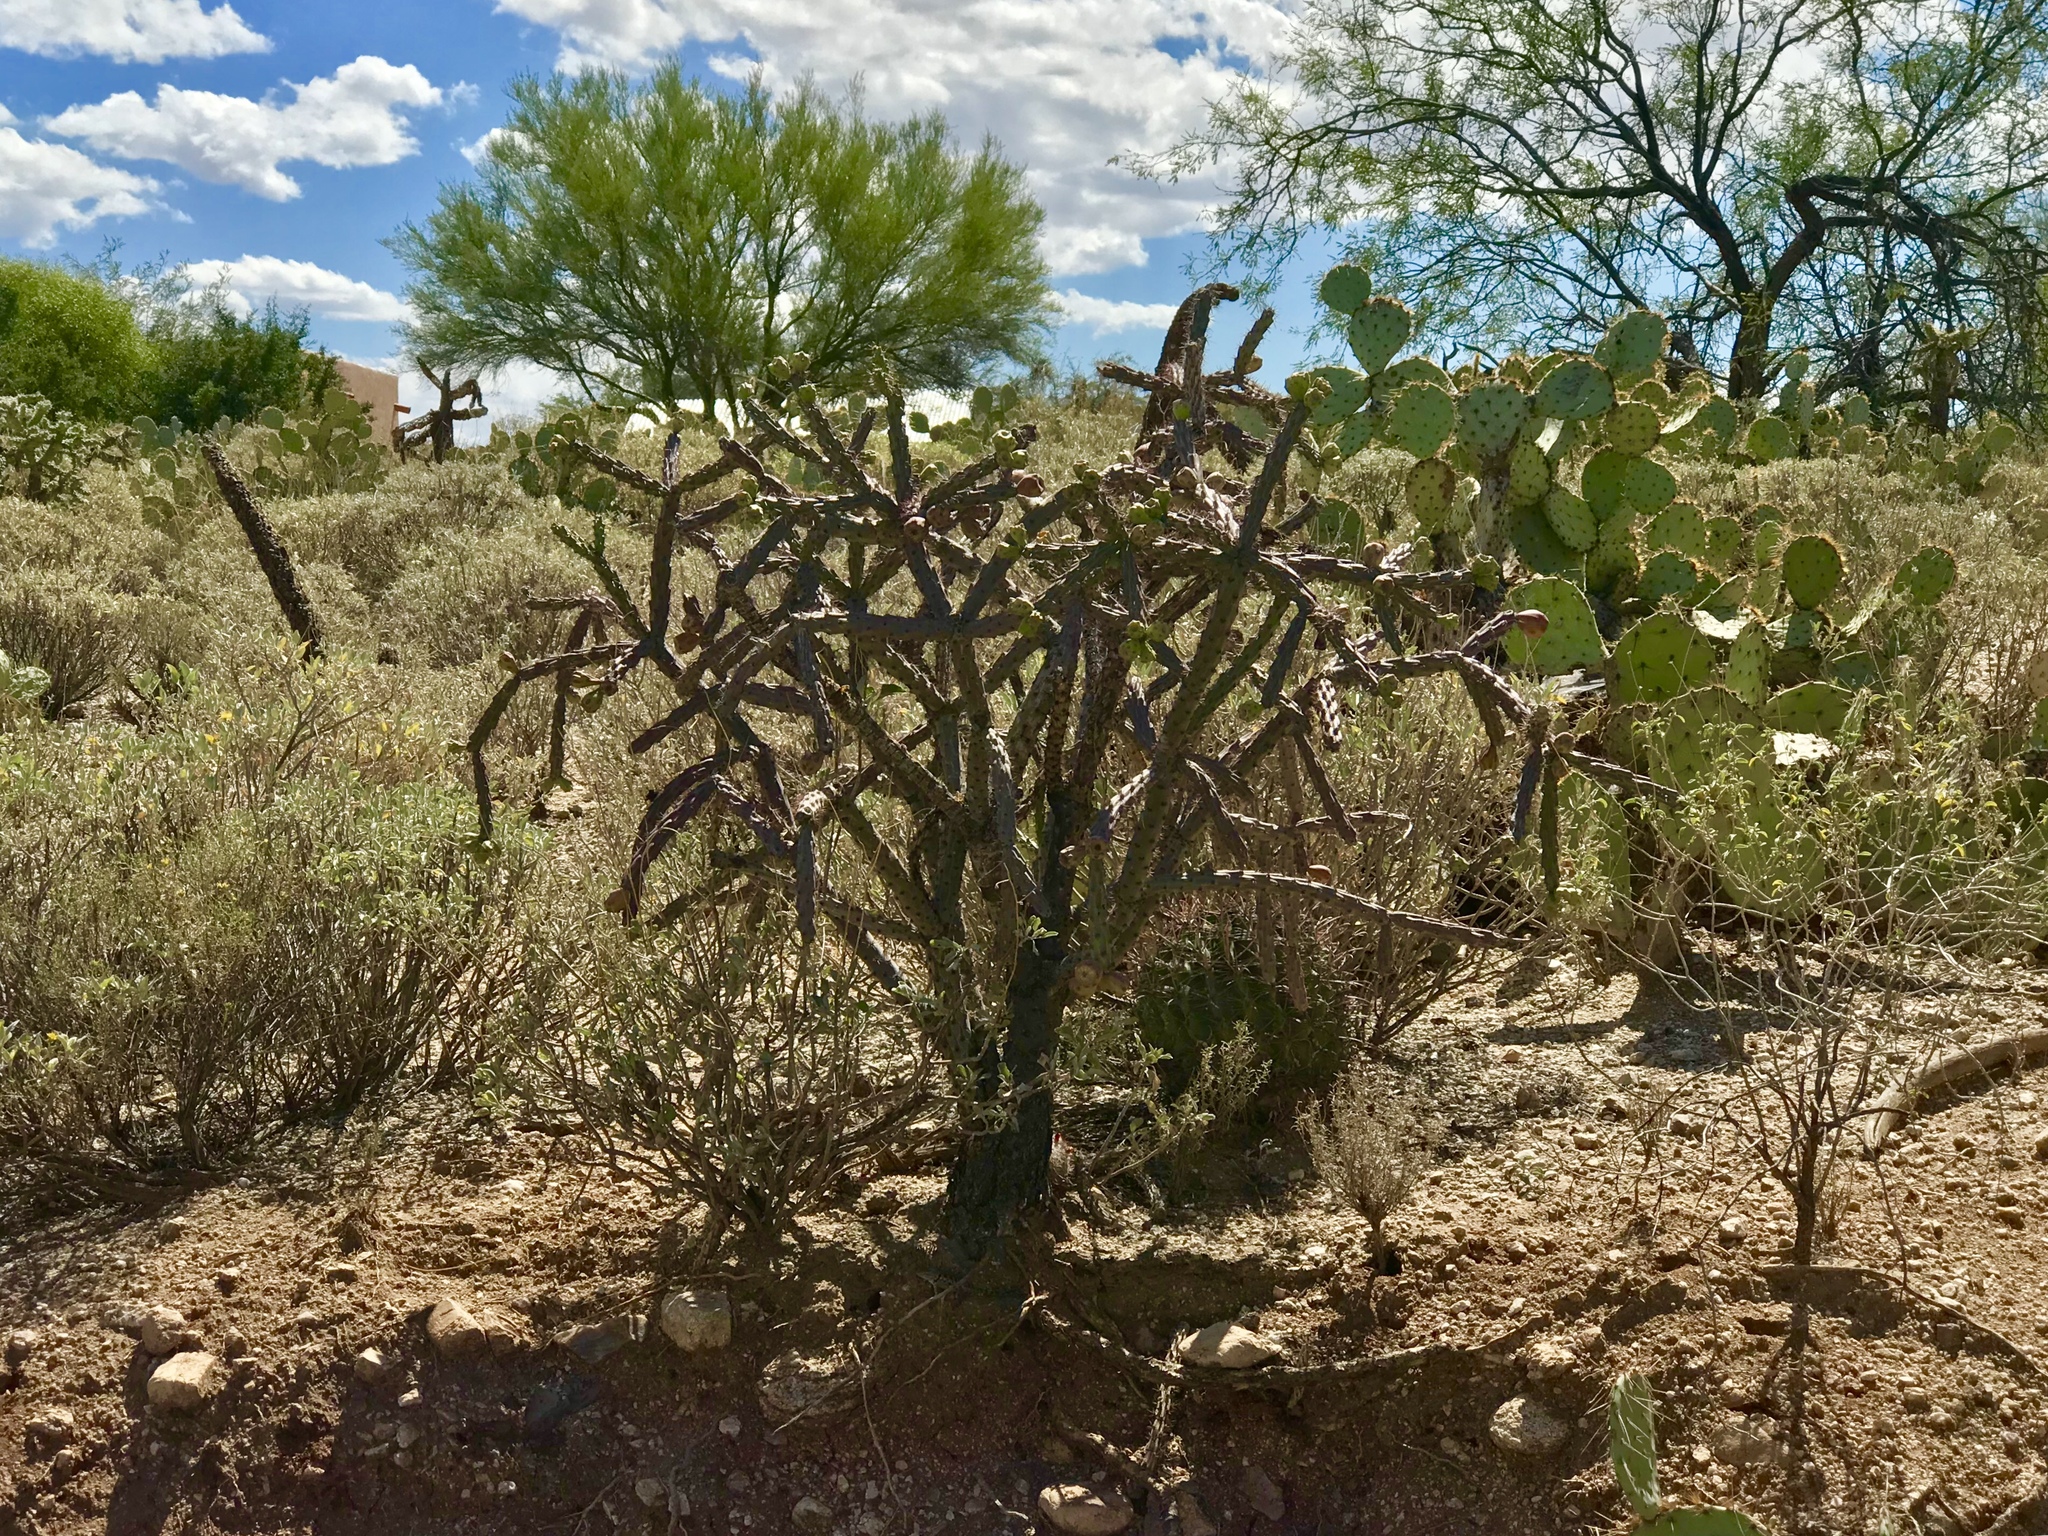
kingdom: Plantae
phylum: Tracheophyta
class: Magnoliopsida
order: Caryophyllales
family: Cactaceae
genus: Cylindropuntia
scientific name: Cylindropuntia thurberi
